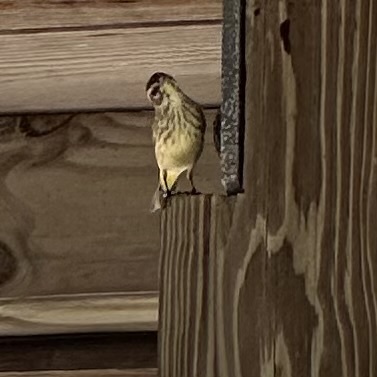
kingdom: Animalia
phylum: Chordata
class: Aves
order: Passeriformes
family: Parulidae
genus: Setophaga
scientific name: Setophaga palmarum
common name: Palm warbler
